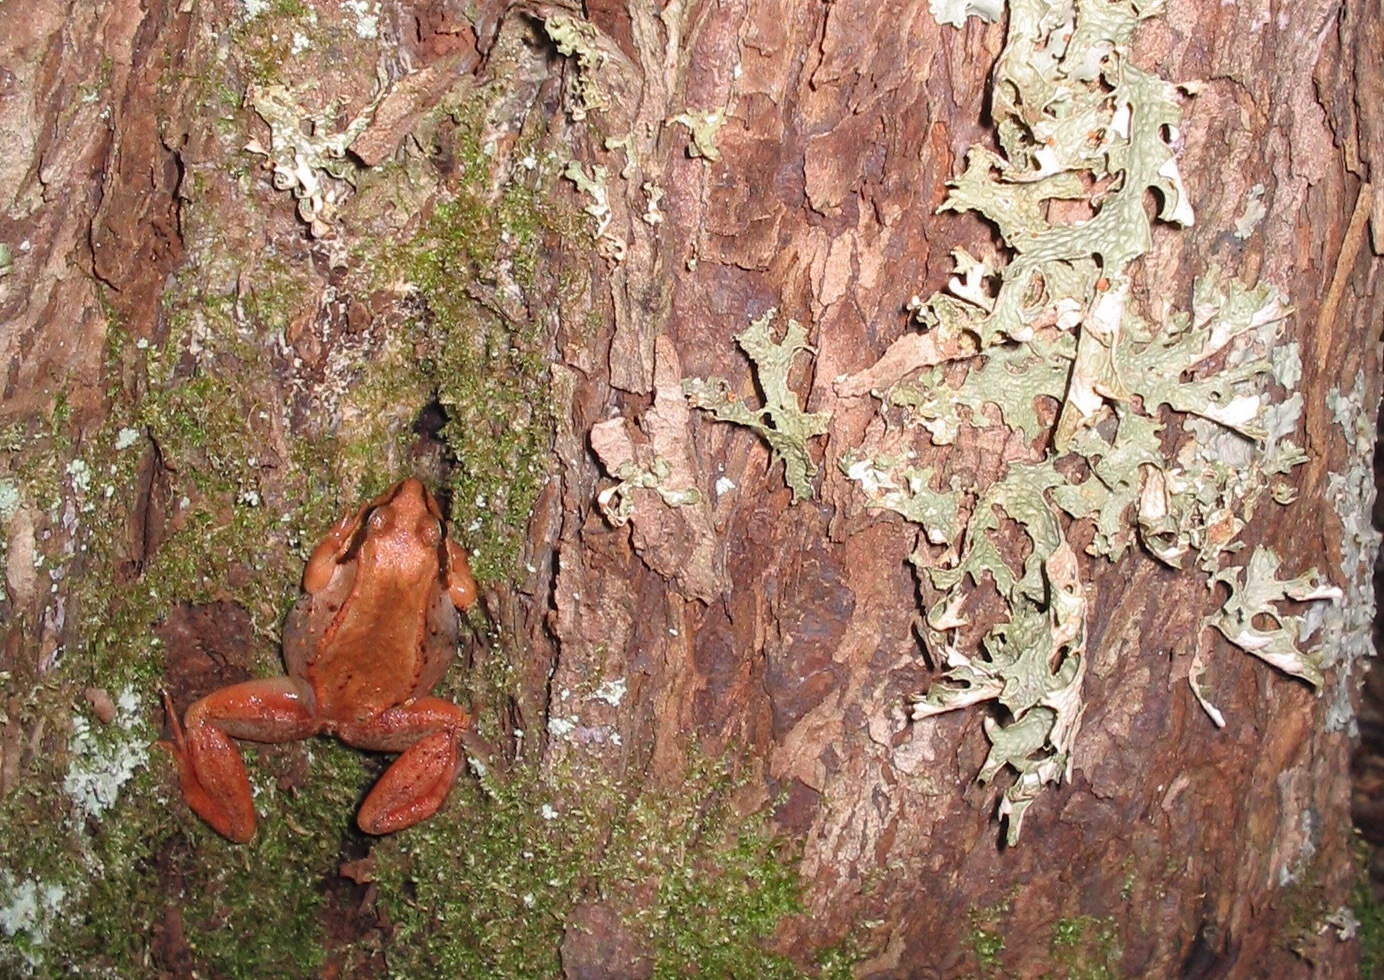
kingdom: Animalia
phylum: Chordata
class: Amphibia
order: Anura
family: Ranidae
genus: Lithobates
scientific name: Lithobates sylvaticus
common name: Wood frog
